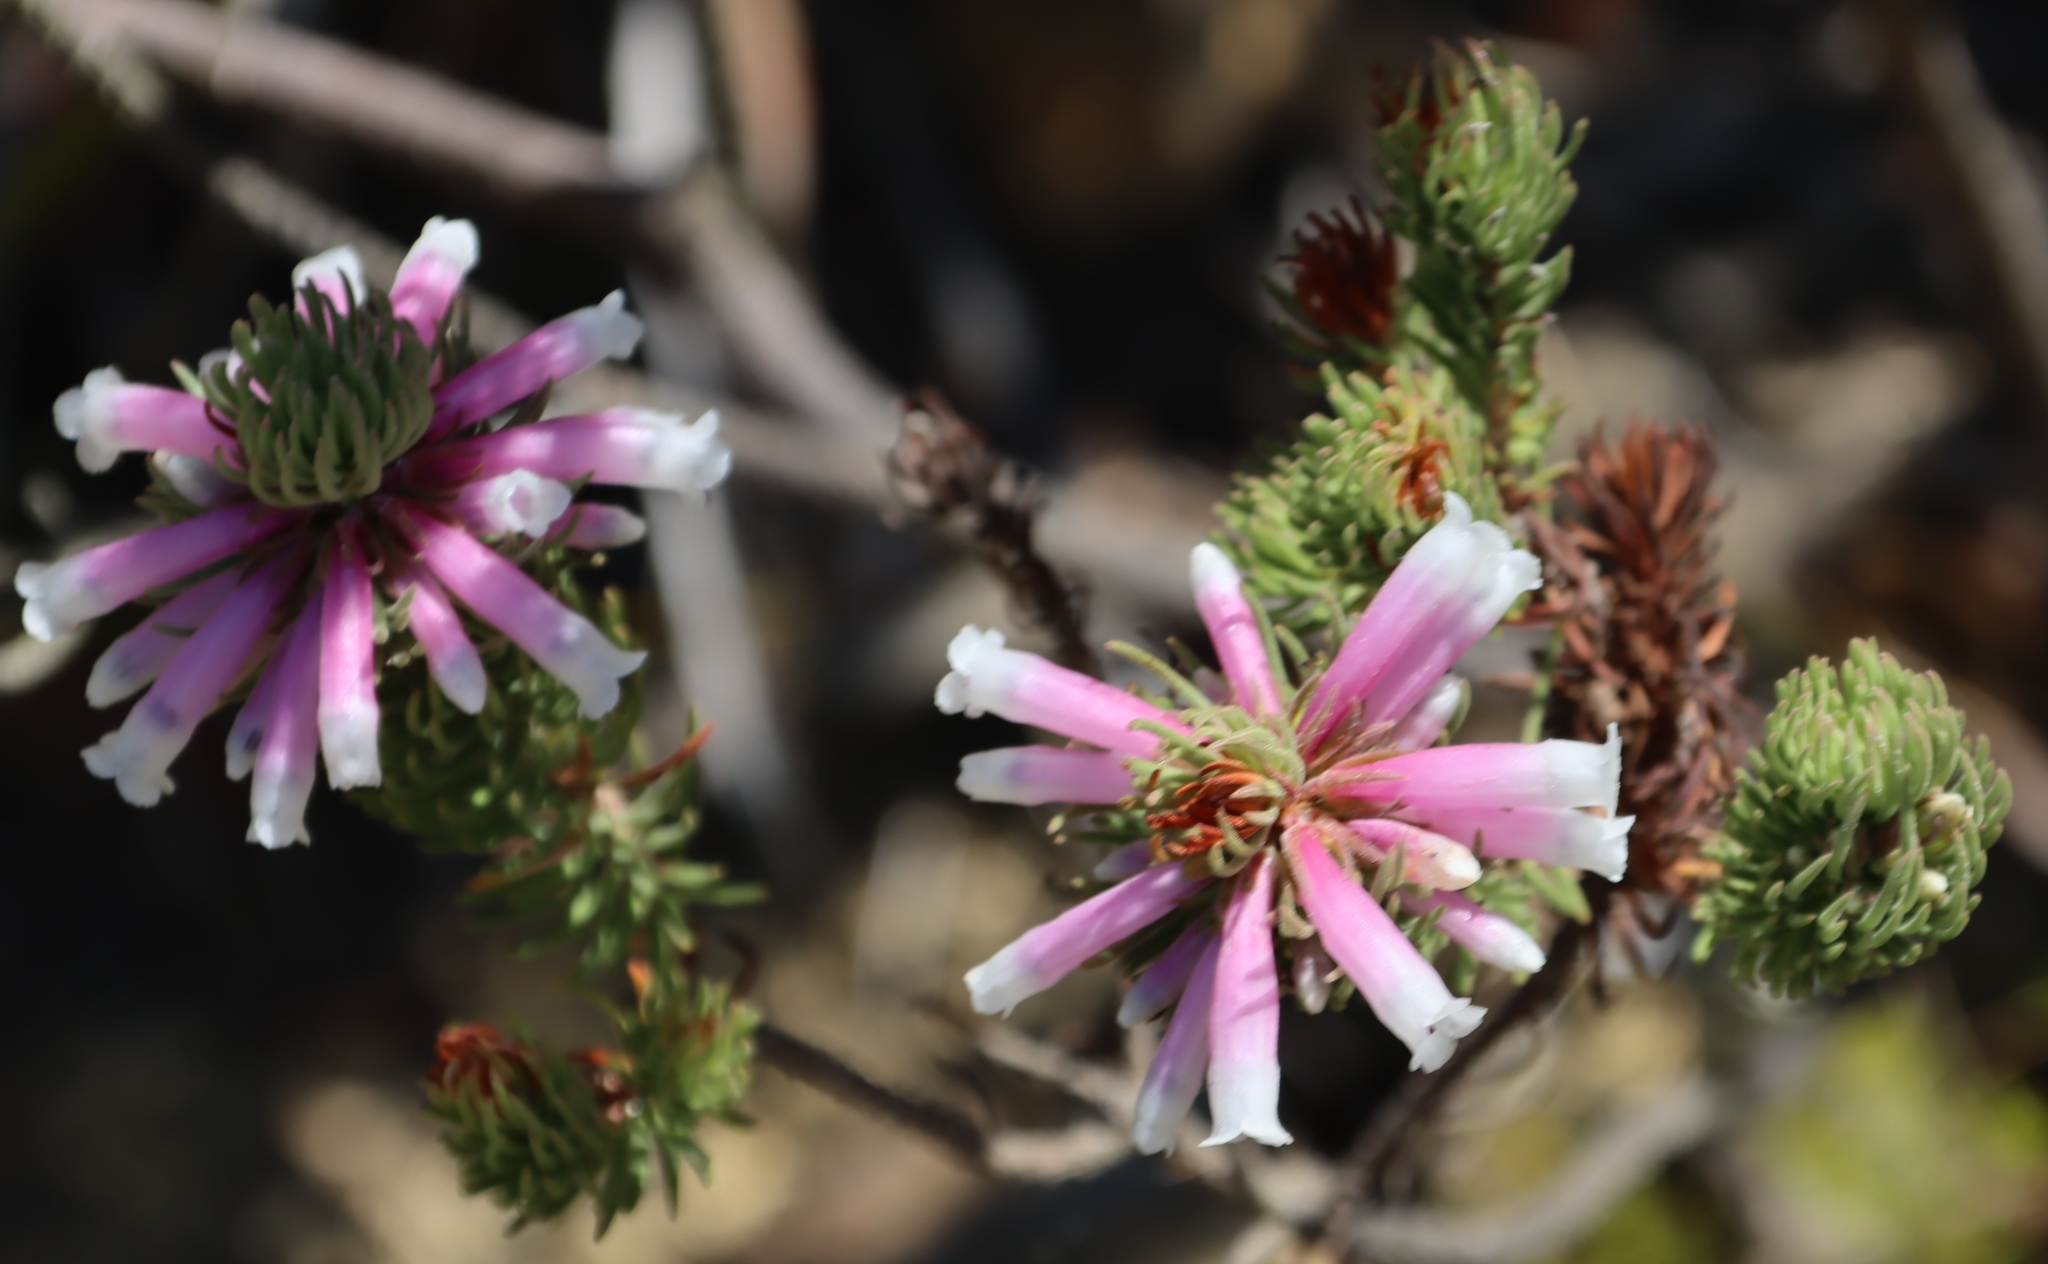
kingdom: Plantae
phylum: Tracheophyta
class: Magnoliopsida
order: Ericales
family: Ericaceae
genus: Erica
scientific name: Erica viscaria
